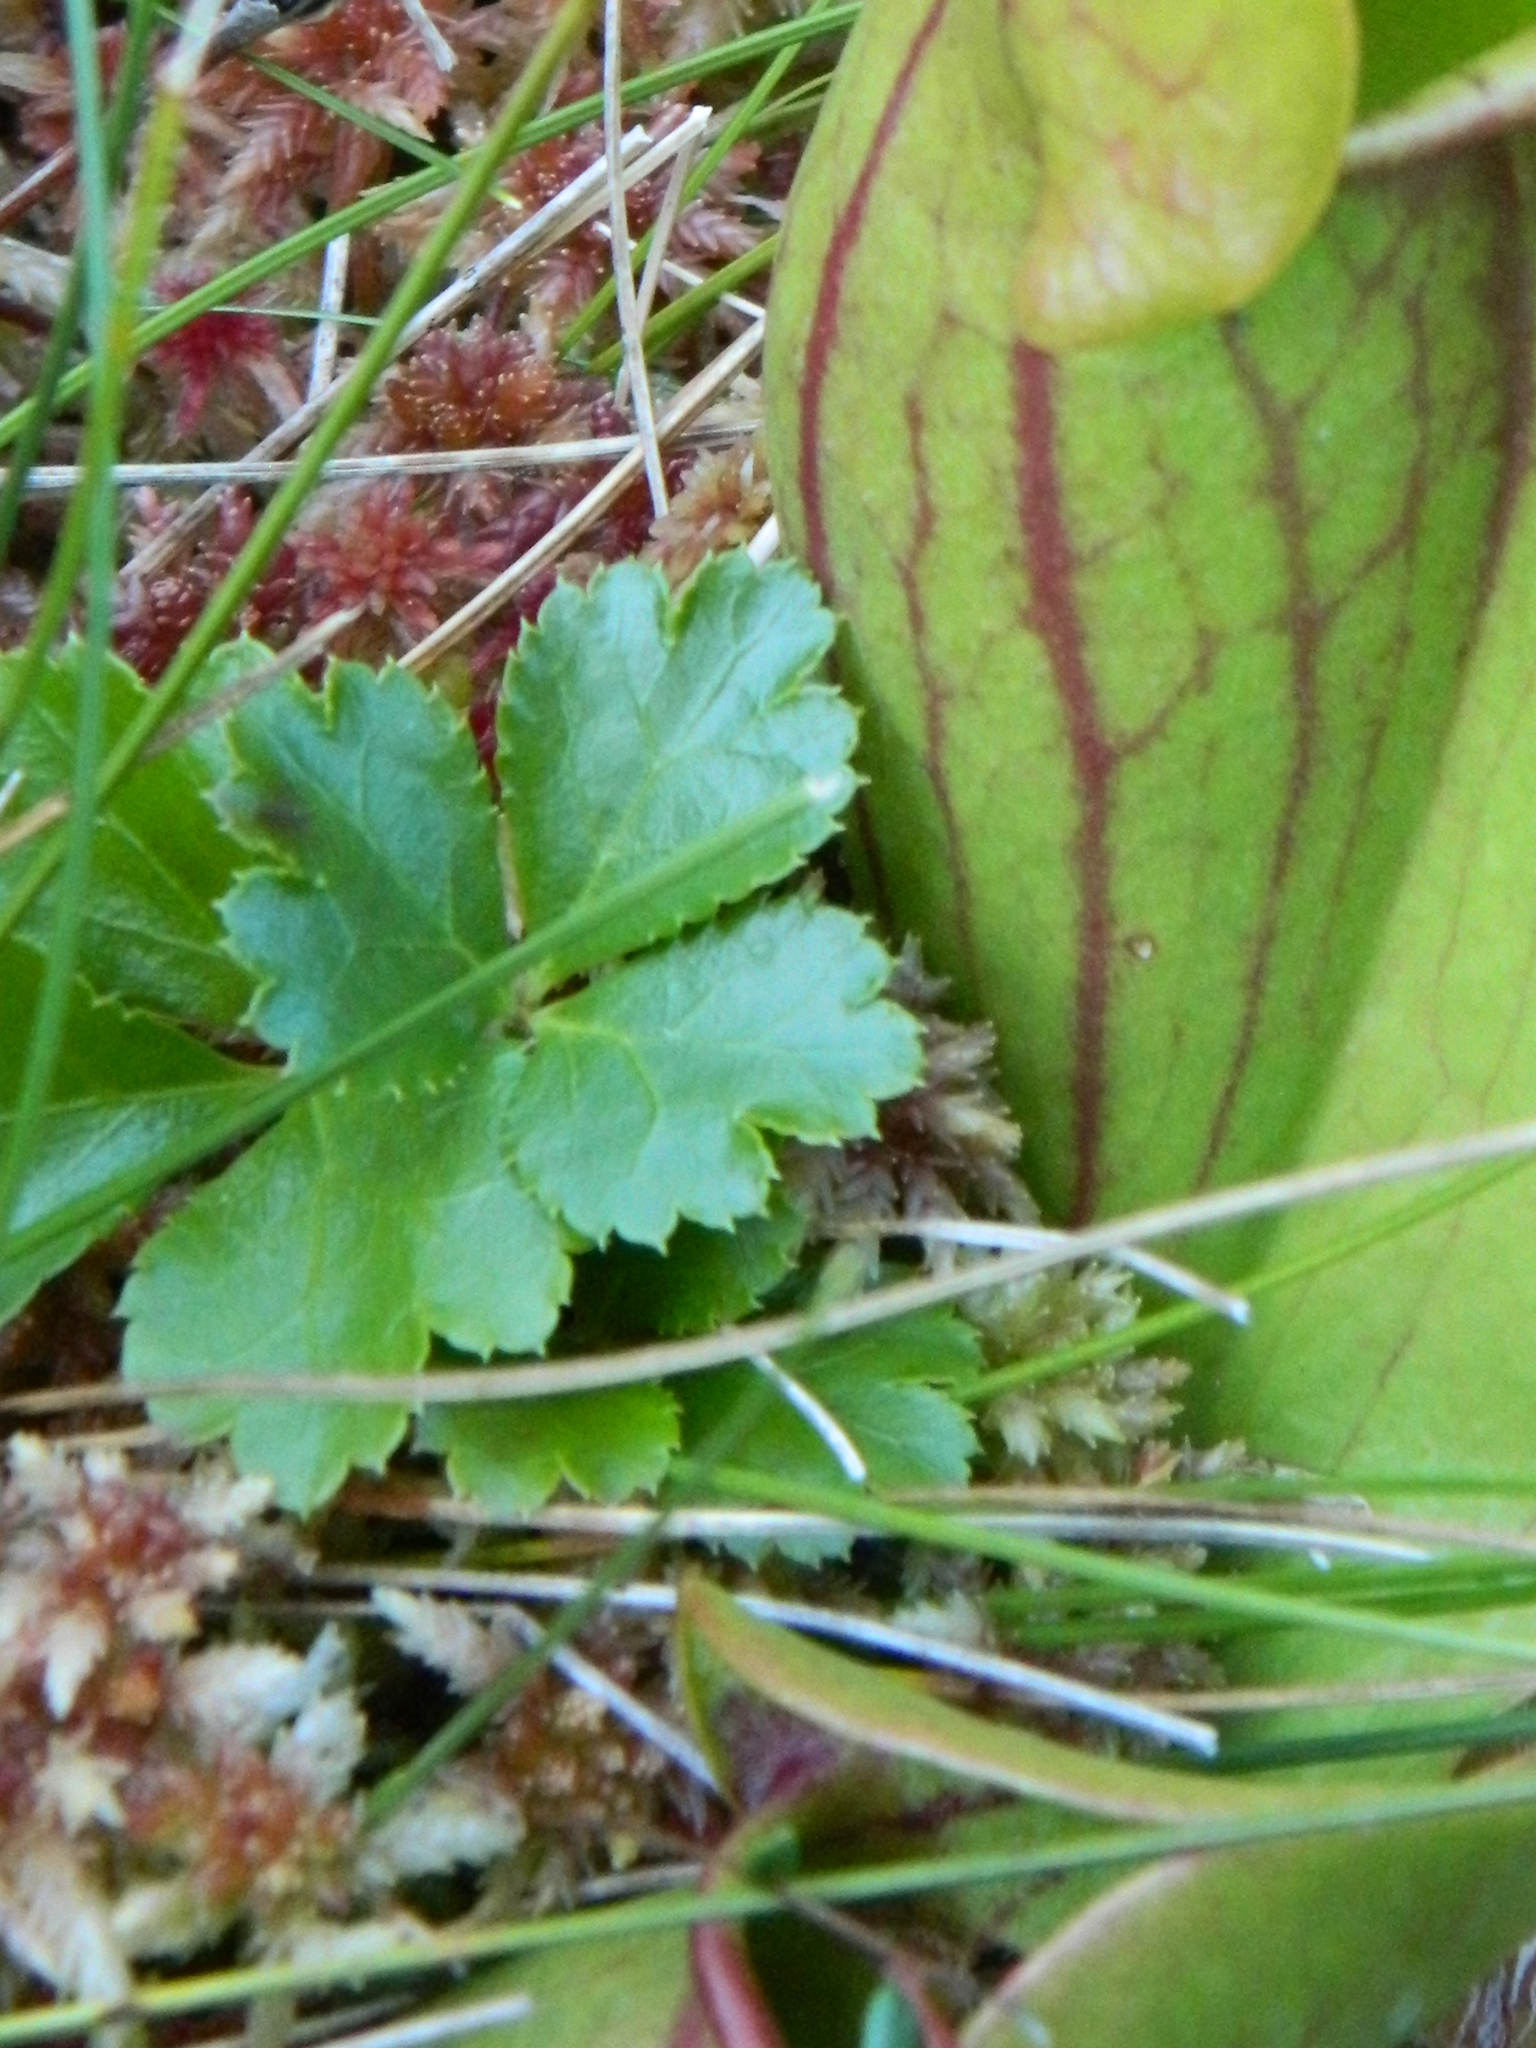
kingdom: Plantae
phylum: Tracheophyta
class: Magnoliopsida
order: Ranunculales
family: Ranunculaceae
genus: Coptis
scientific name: Coptis trifolia
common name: Canker-root
